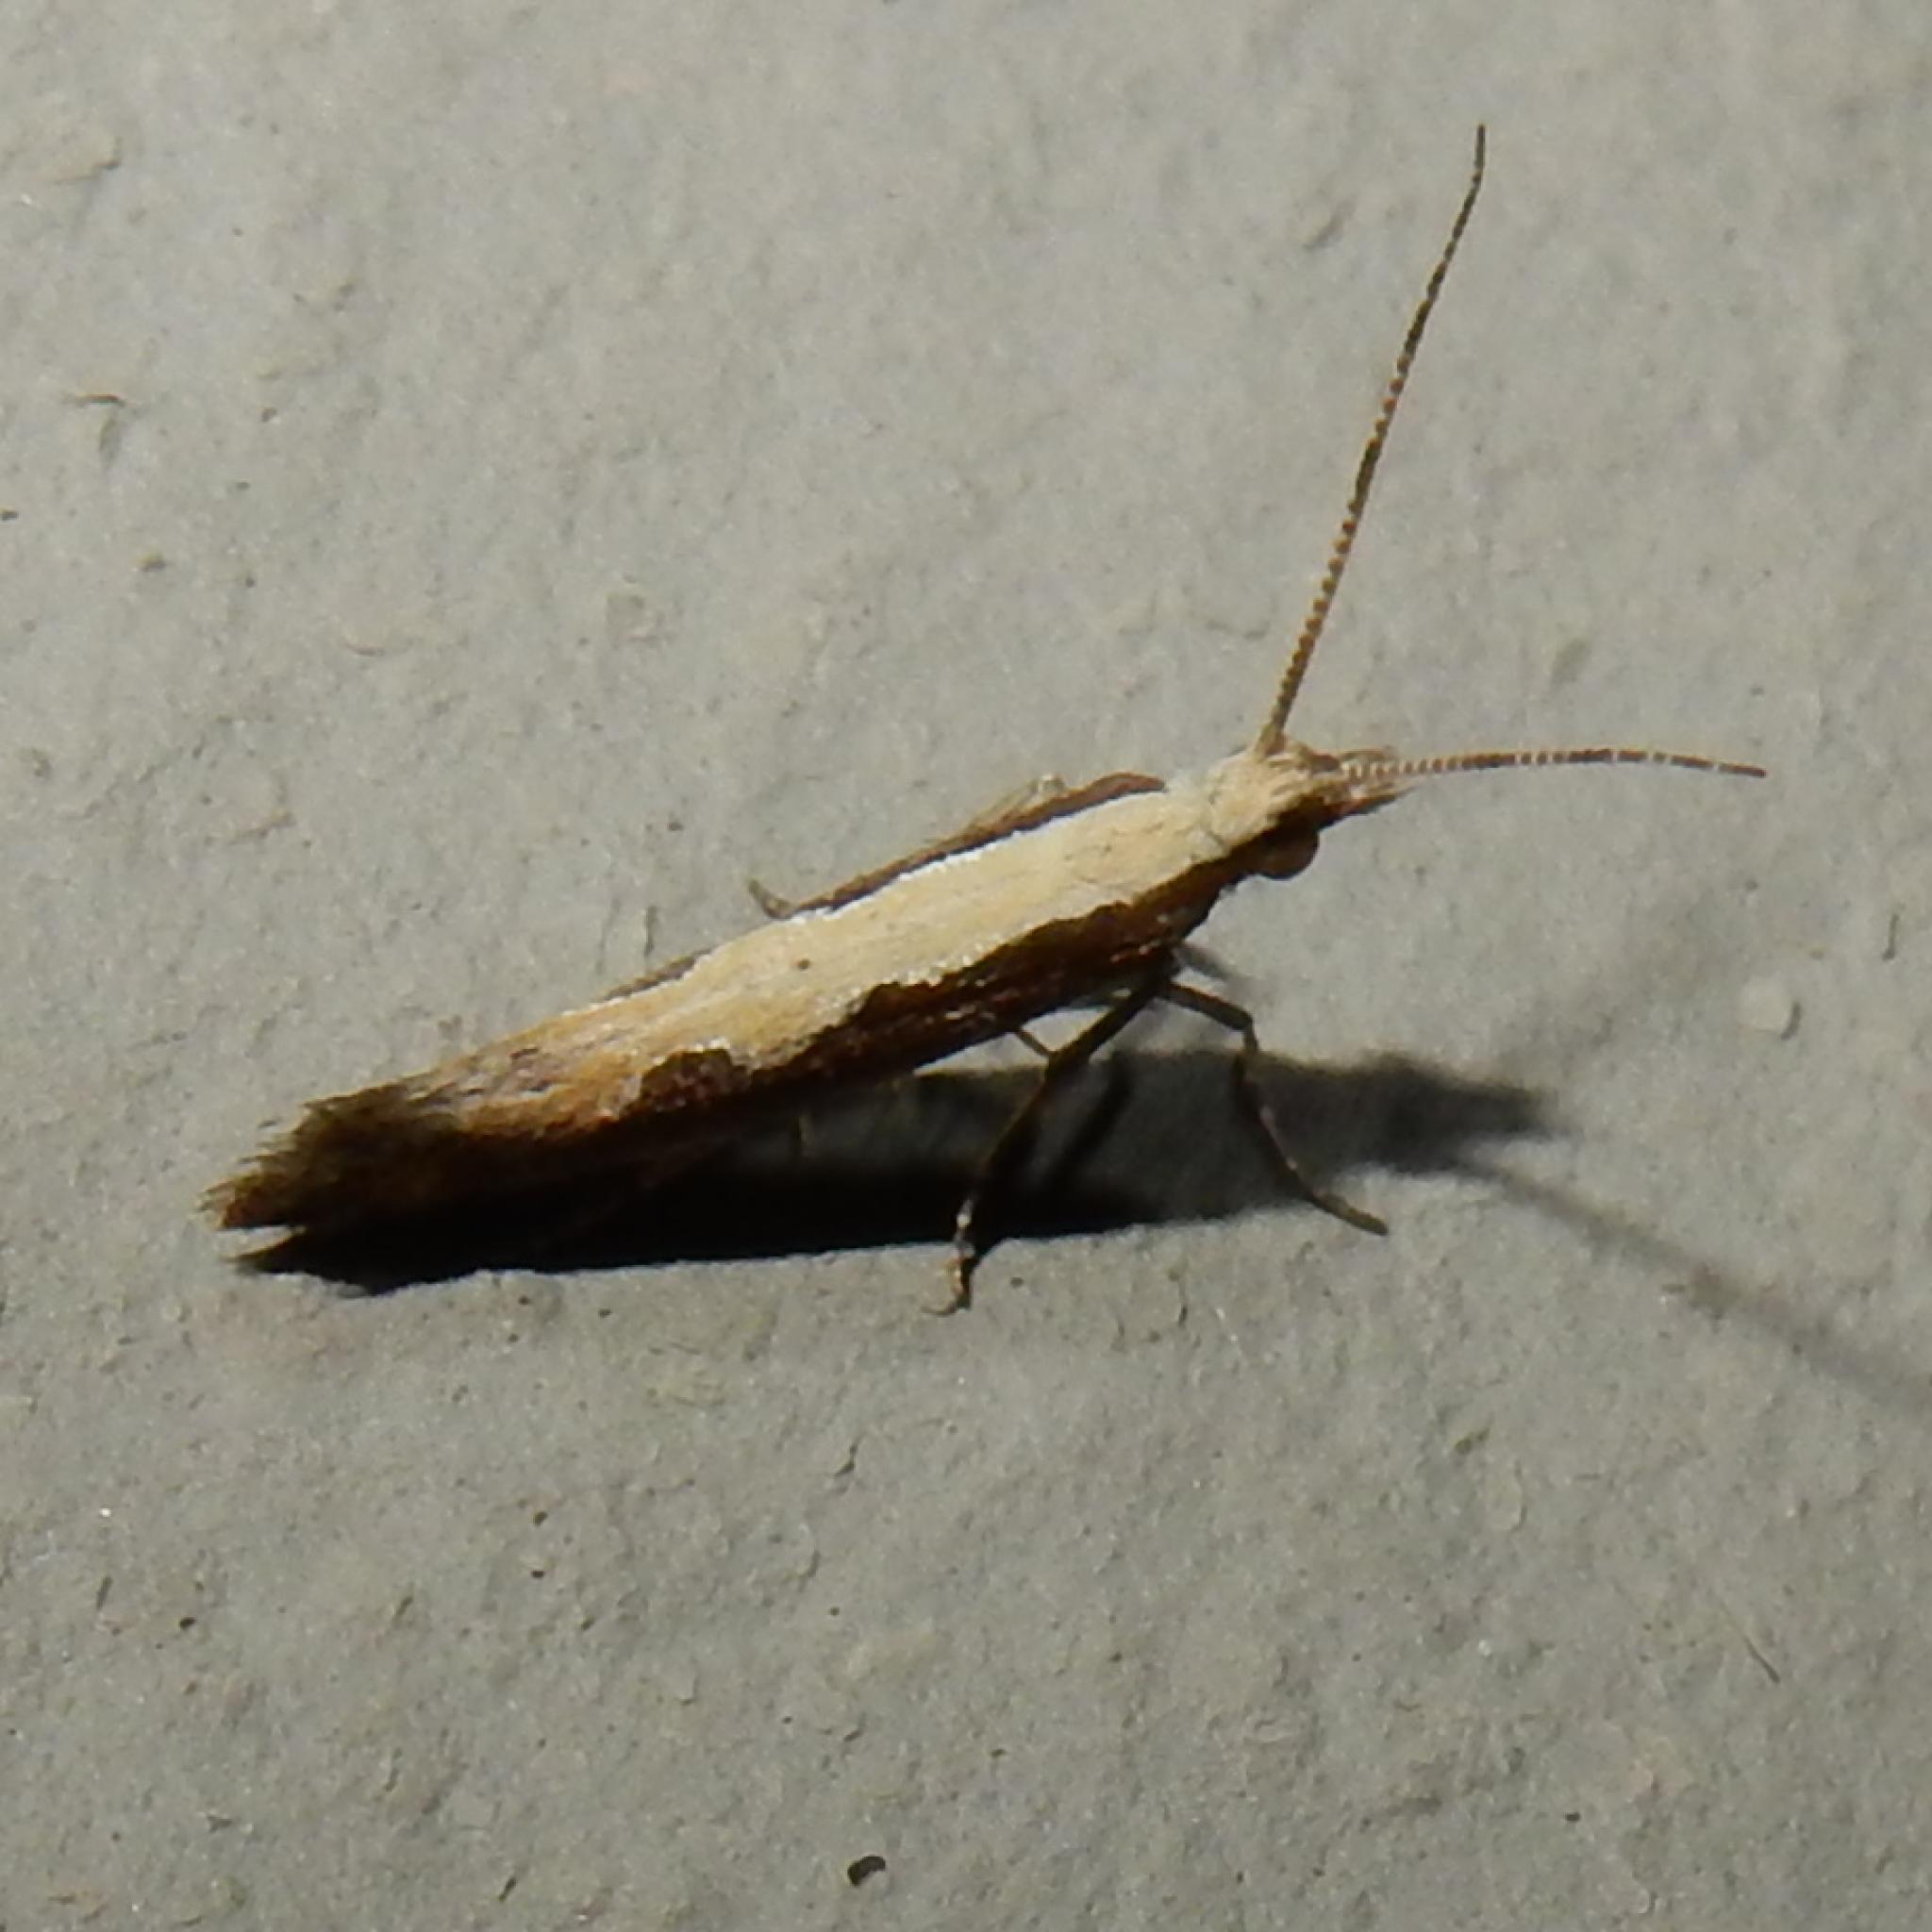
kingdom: Animalia
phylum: Arthropoda
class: Insecta
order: Lepidoptera
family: Plutellidae
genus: Plutella
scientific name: Plutella xylostella
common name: Diamond-back moth
